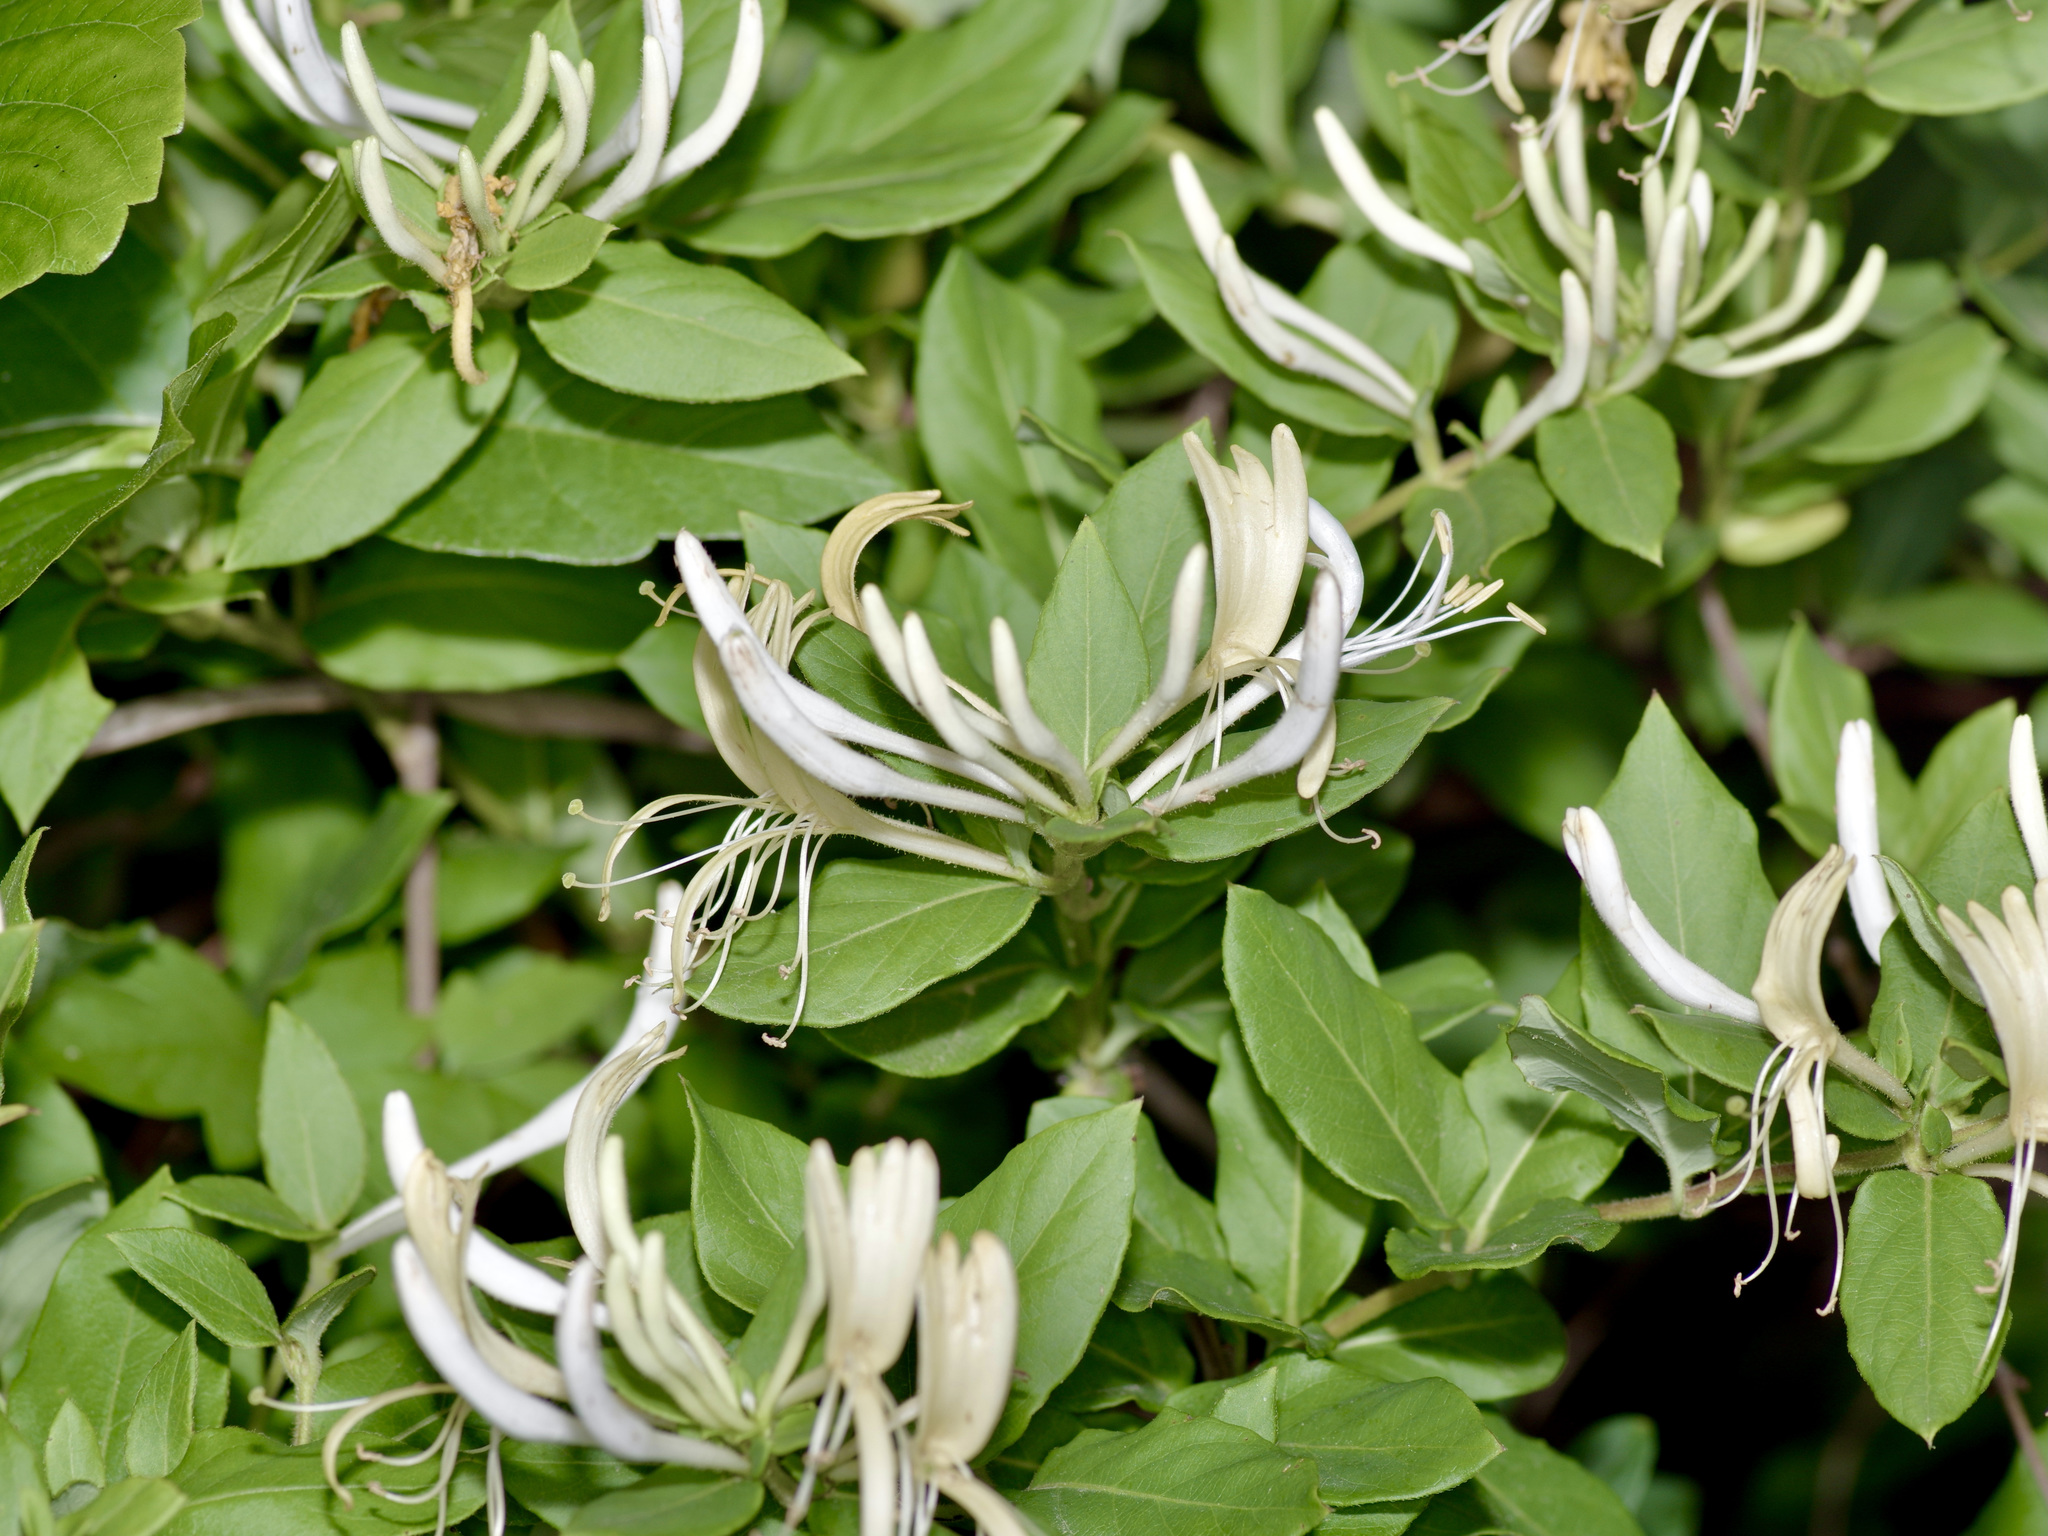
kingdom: Plantae
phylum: Tracheophyta
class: Magnoliopsida
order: Dipsacales
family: Caprifoliaceae
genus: Lonicera
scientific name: Lonicera japonica
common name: Japanese honeysuckle
